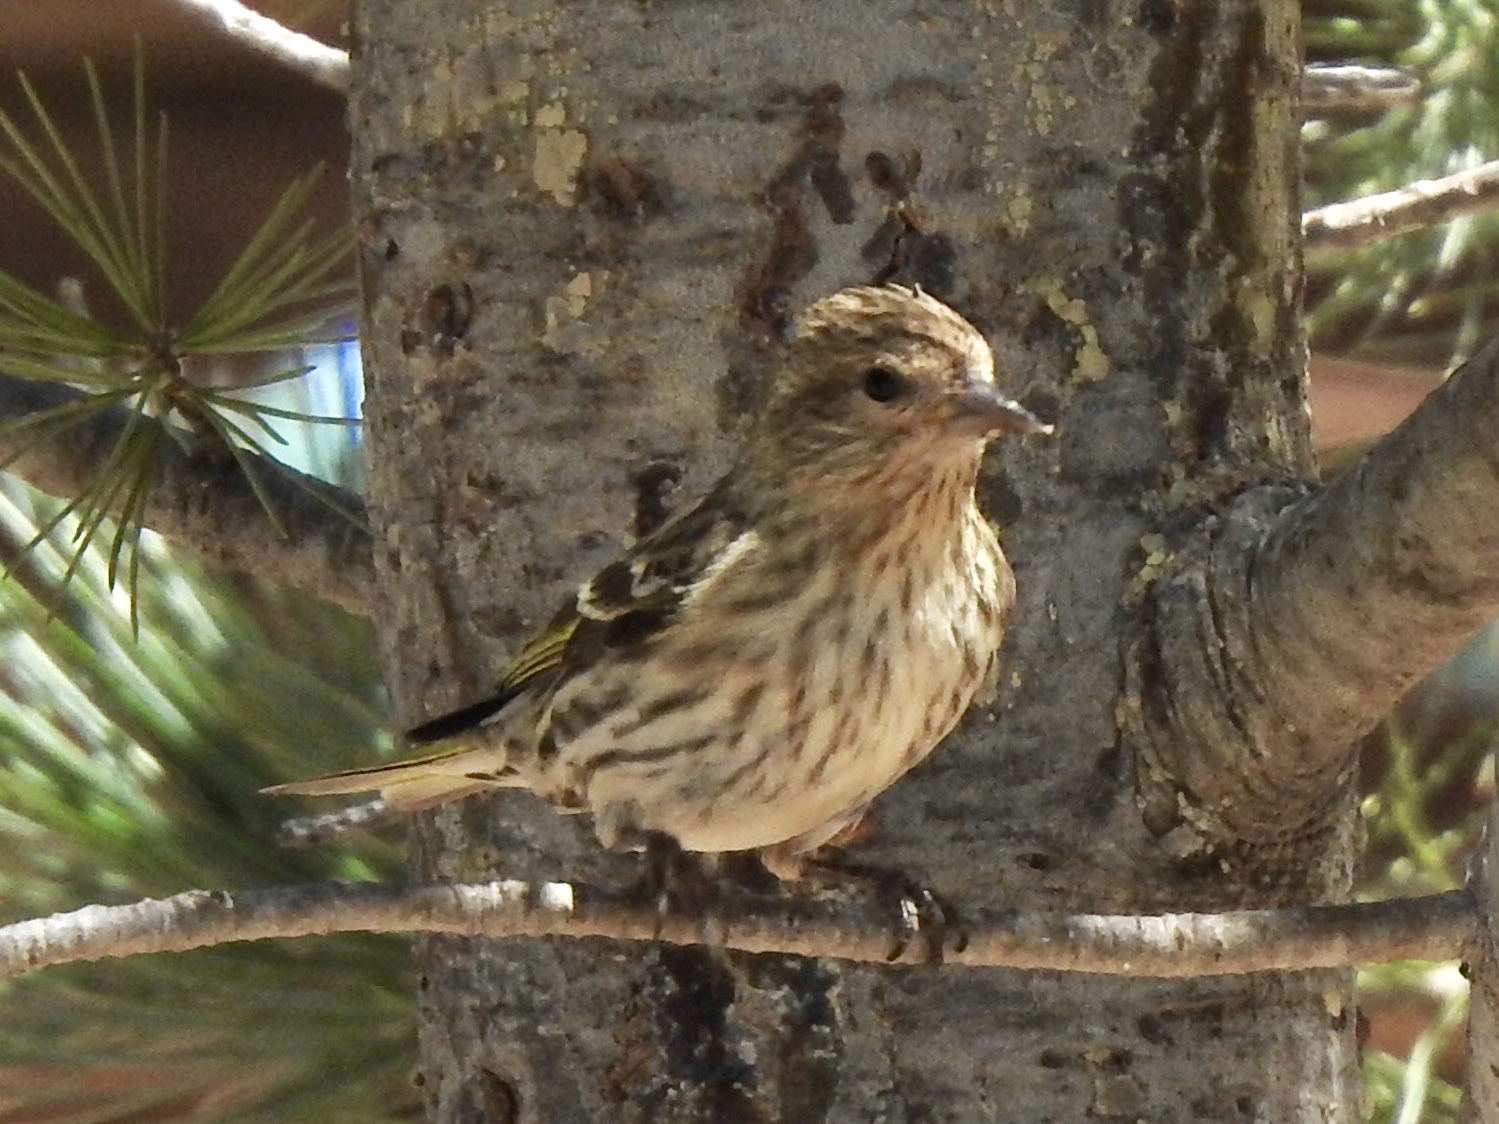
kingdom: Animalia
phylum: Chordata
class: Aves
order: Passeriformes
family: Fringillidae
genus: Spinus
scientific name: Spinus pinus
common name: Pine siskin
